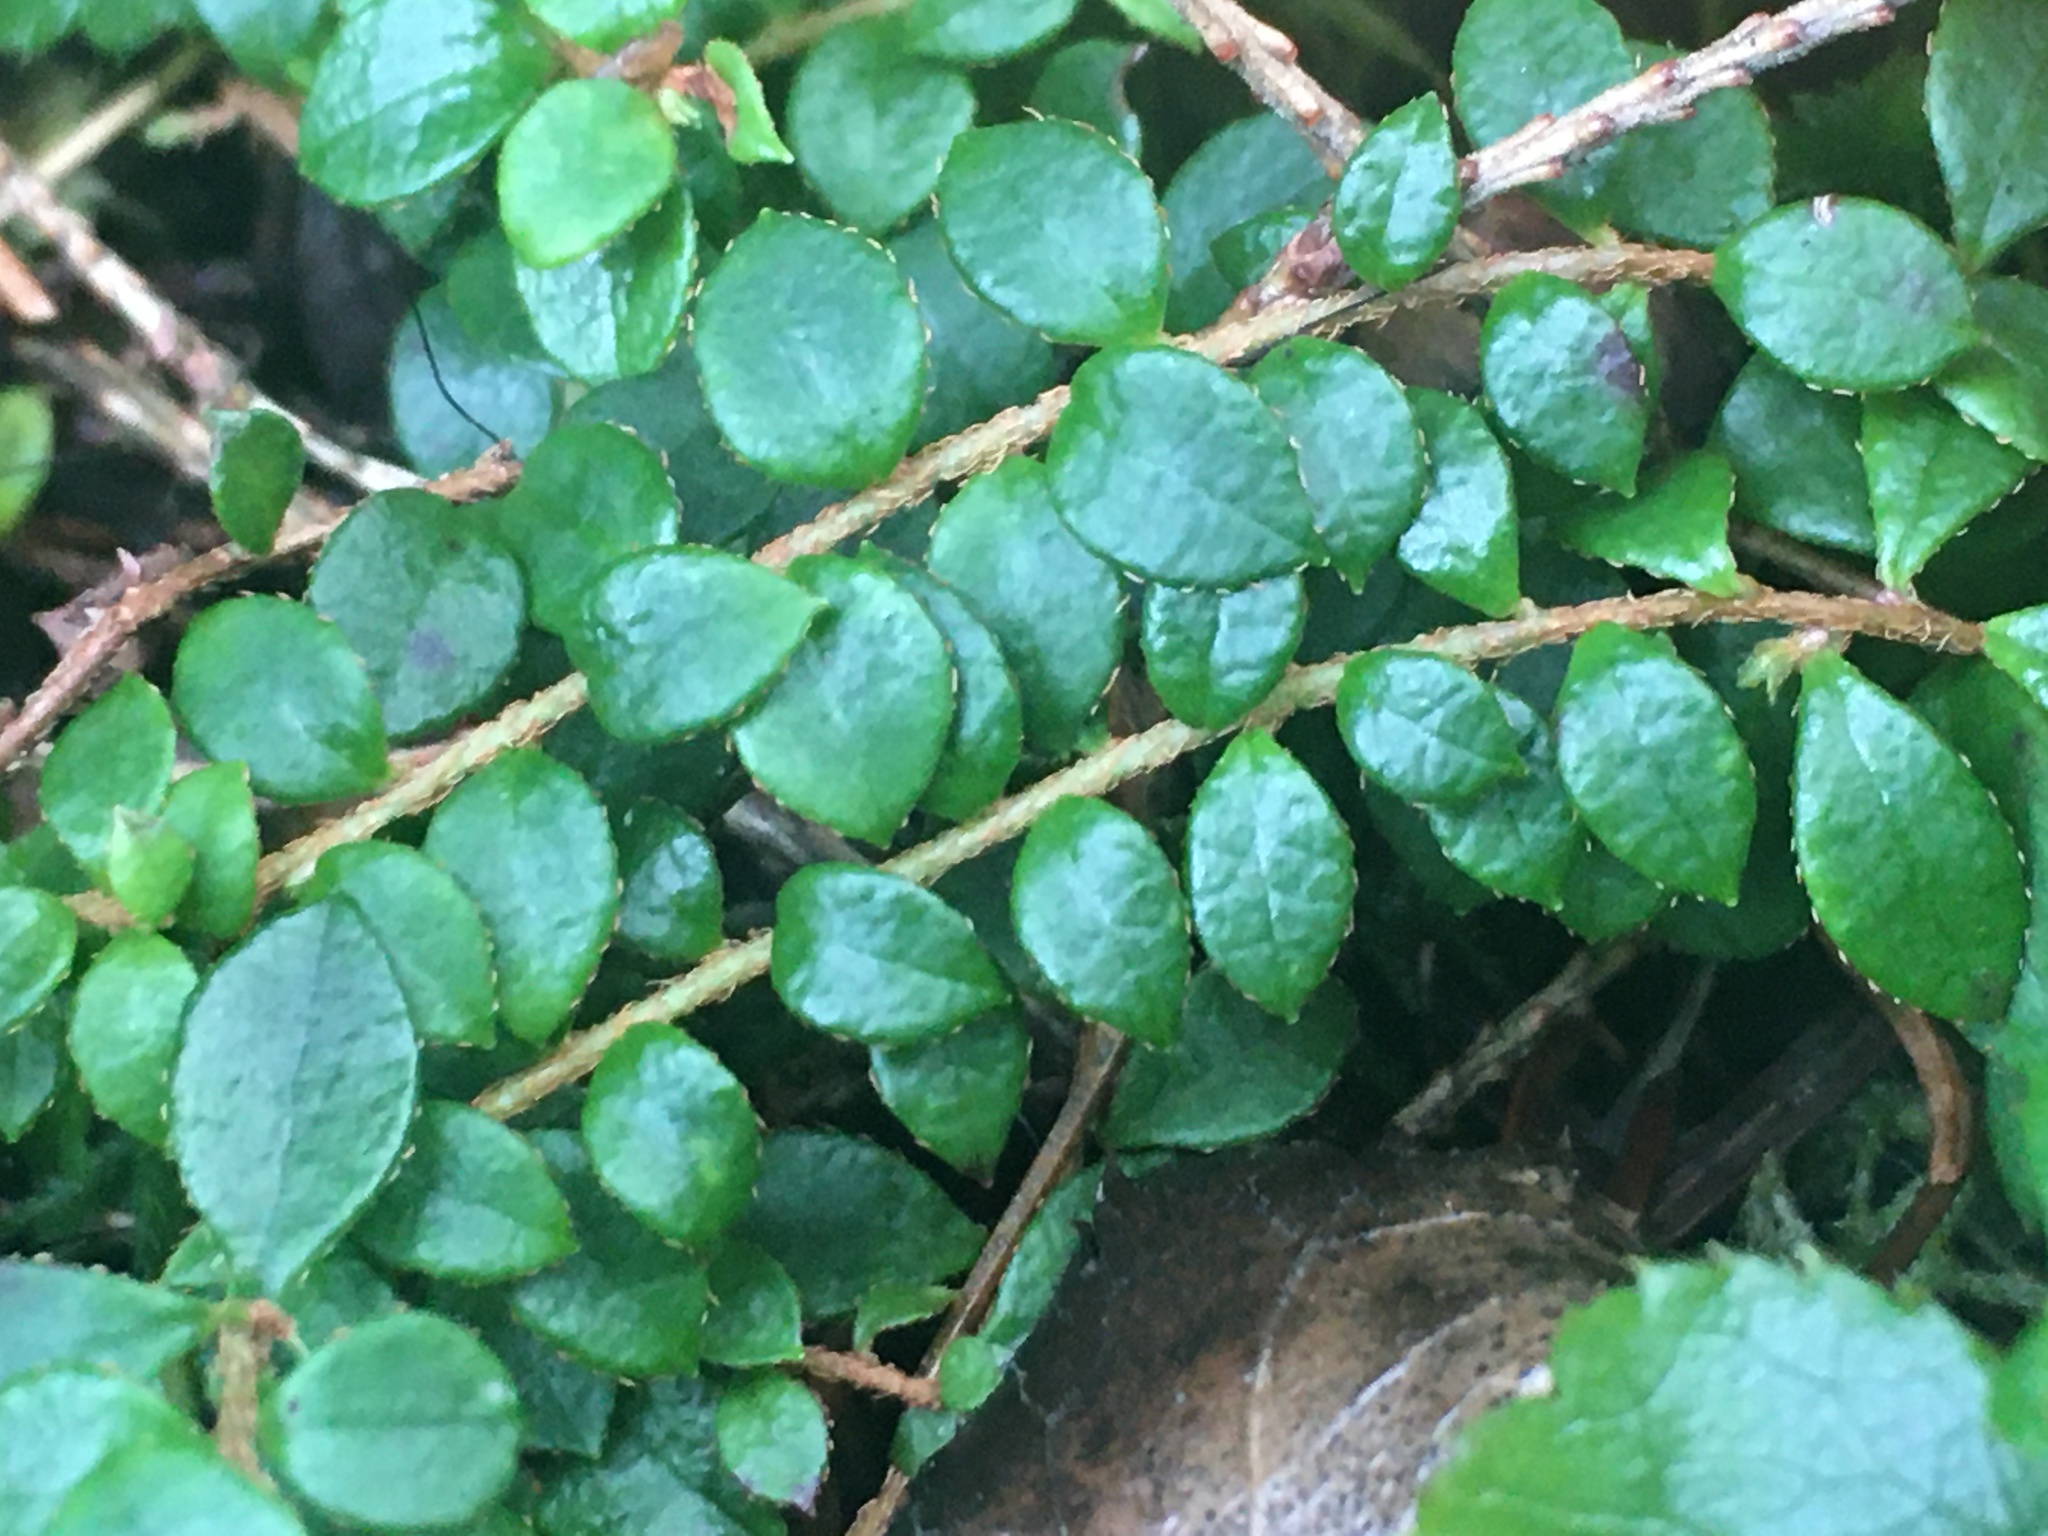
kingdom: Plantae
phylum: Tracheophyta
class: Magnoliopsida
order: Ericales
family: Ericaceae
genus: Gaultheria
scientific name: Gaultheria hispidula
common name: Cancer wintergreen
